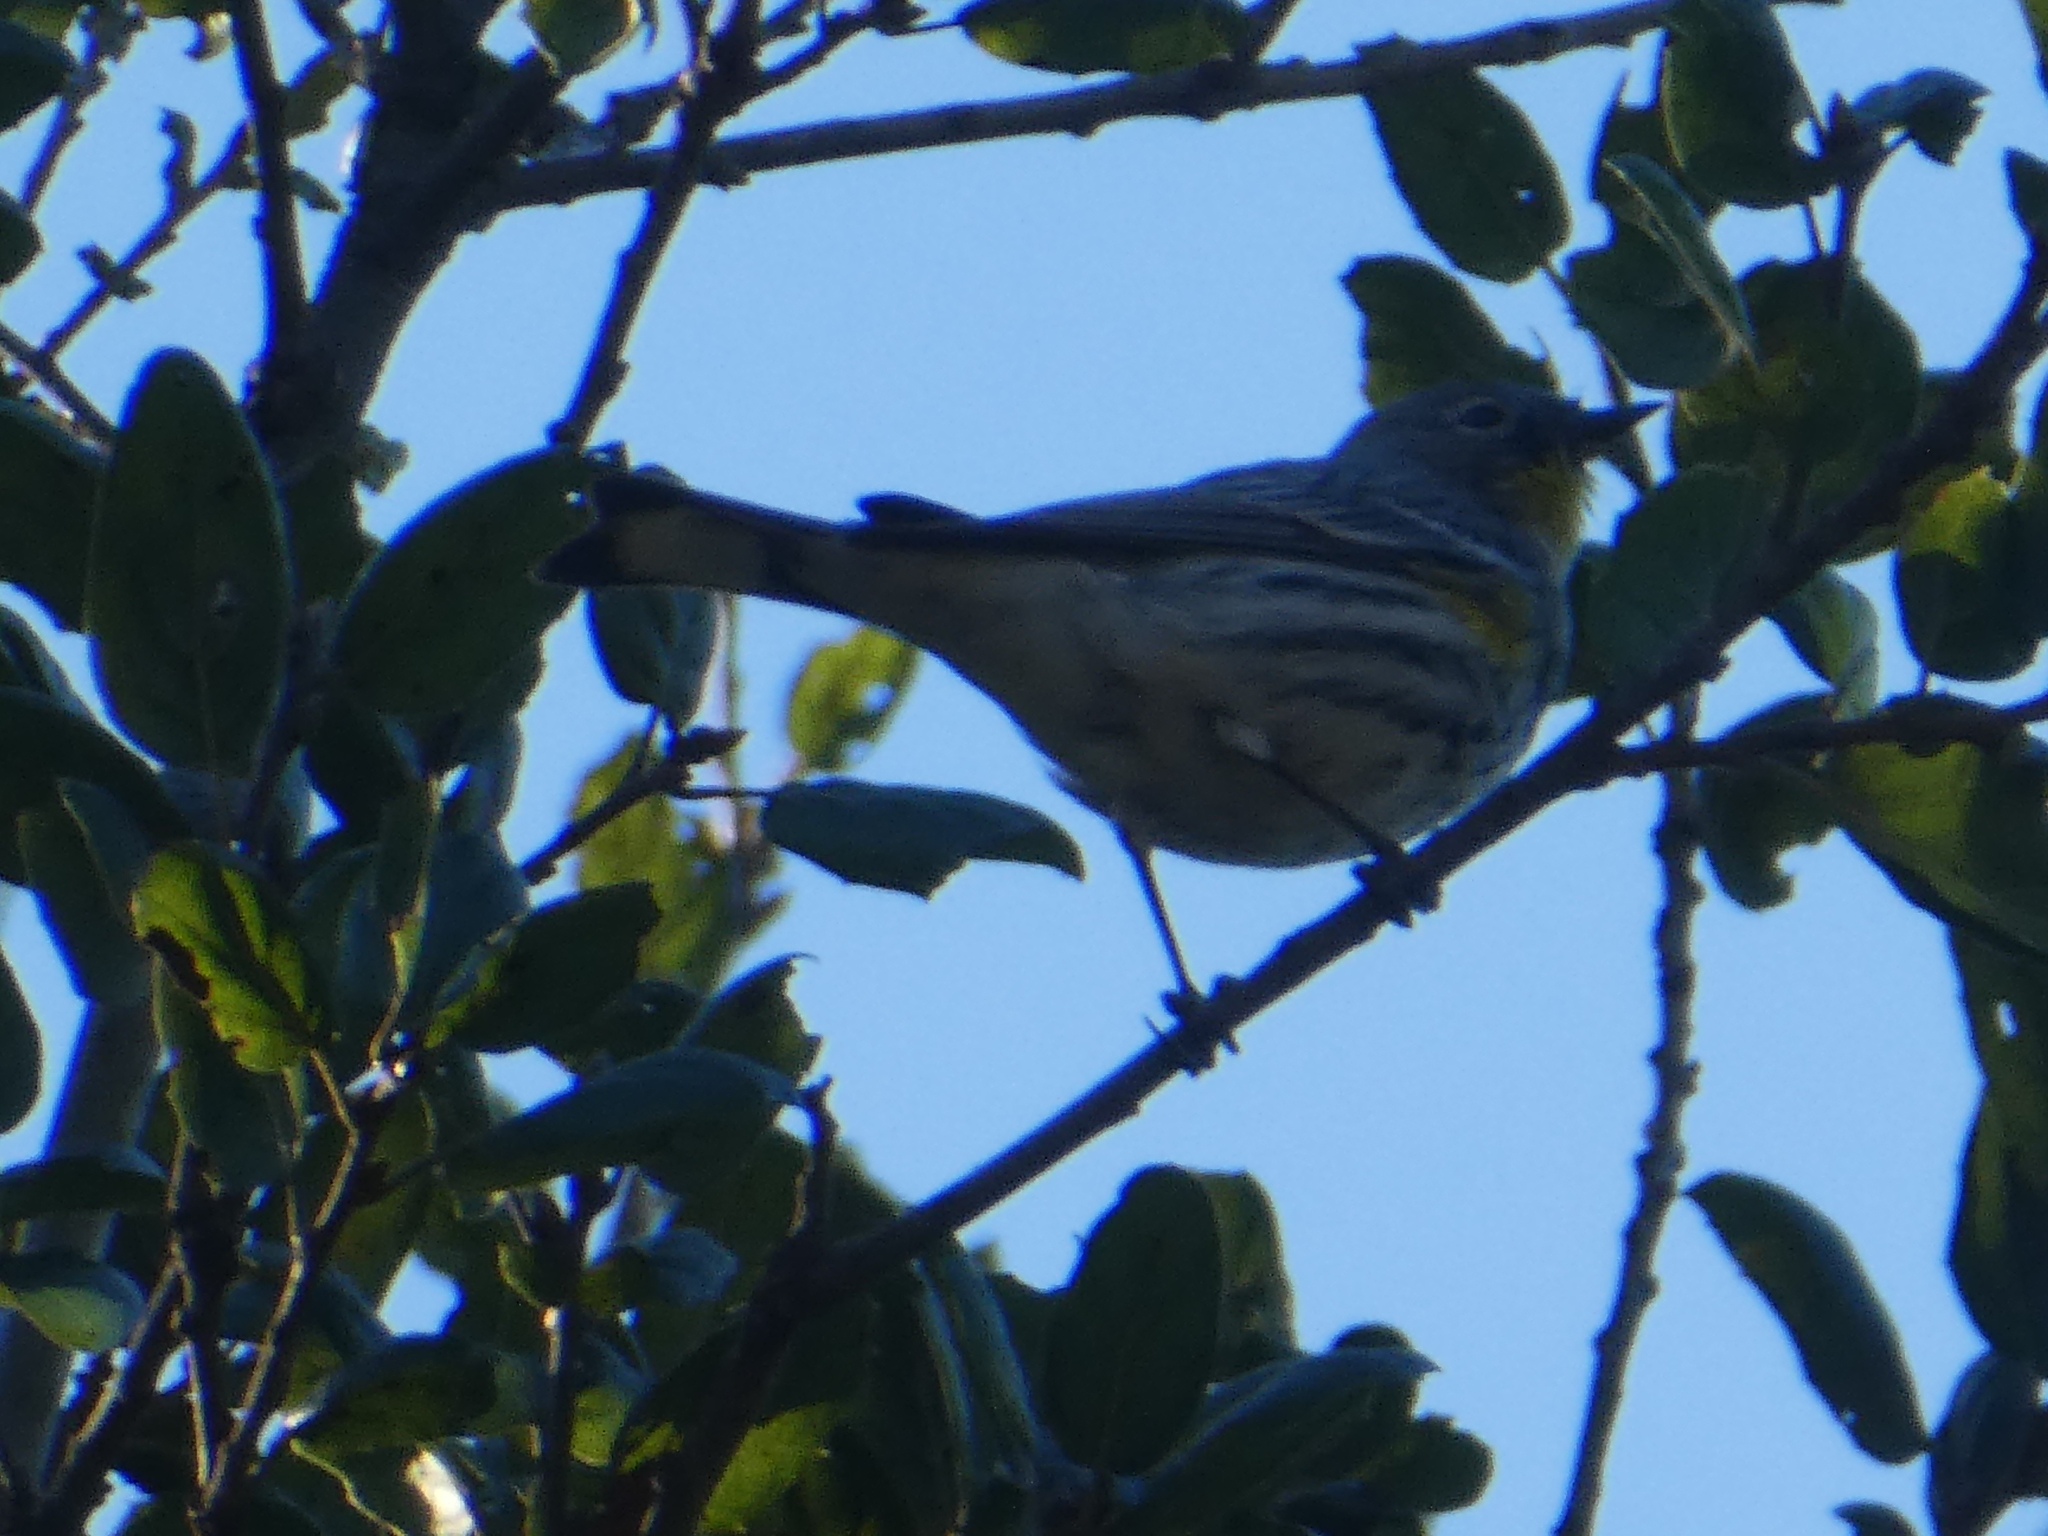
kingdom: Animalia
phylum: Chordata
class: Aves
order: Passeriformes
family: Parulidae
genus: Setophaga
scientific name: Setophaga coronata
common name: Myrtle warbler
